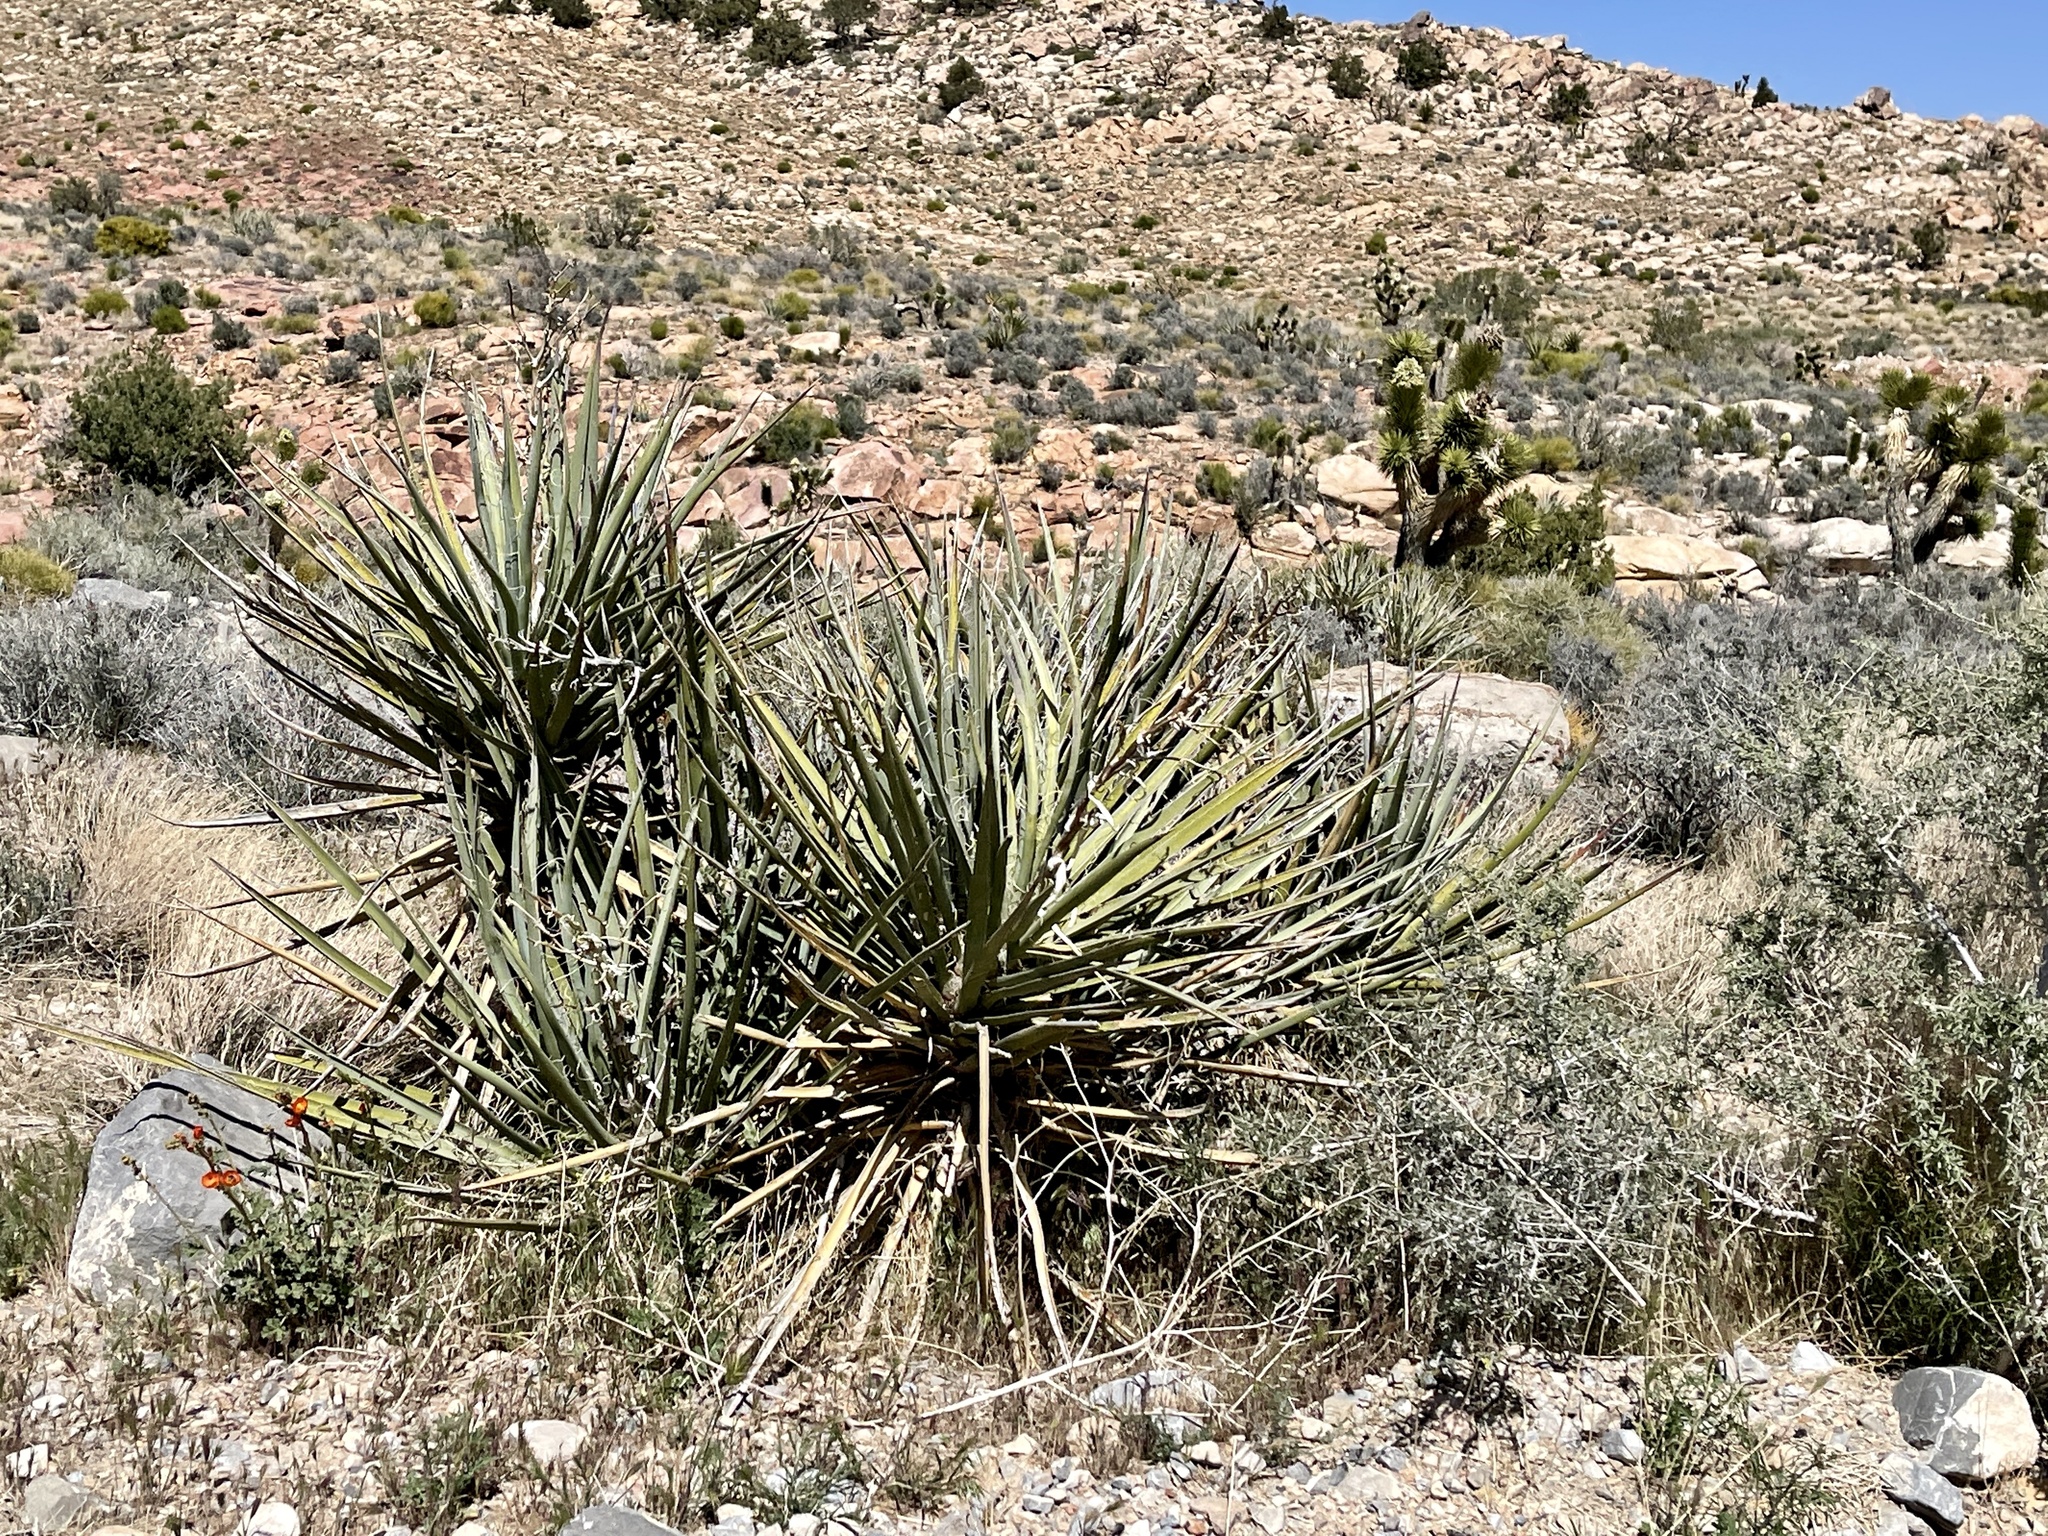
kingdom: Plantae
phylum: Tracheophyta
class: Liliopsida
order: Asparagales
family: Asparagaceae
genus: Yucca
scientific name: Yucca schidigera
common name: Mojave yucca
